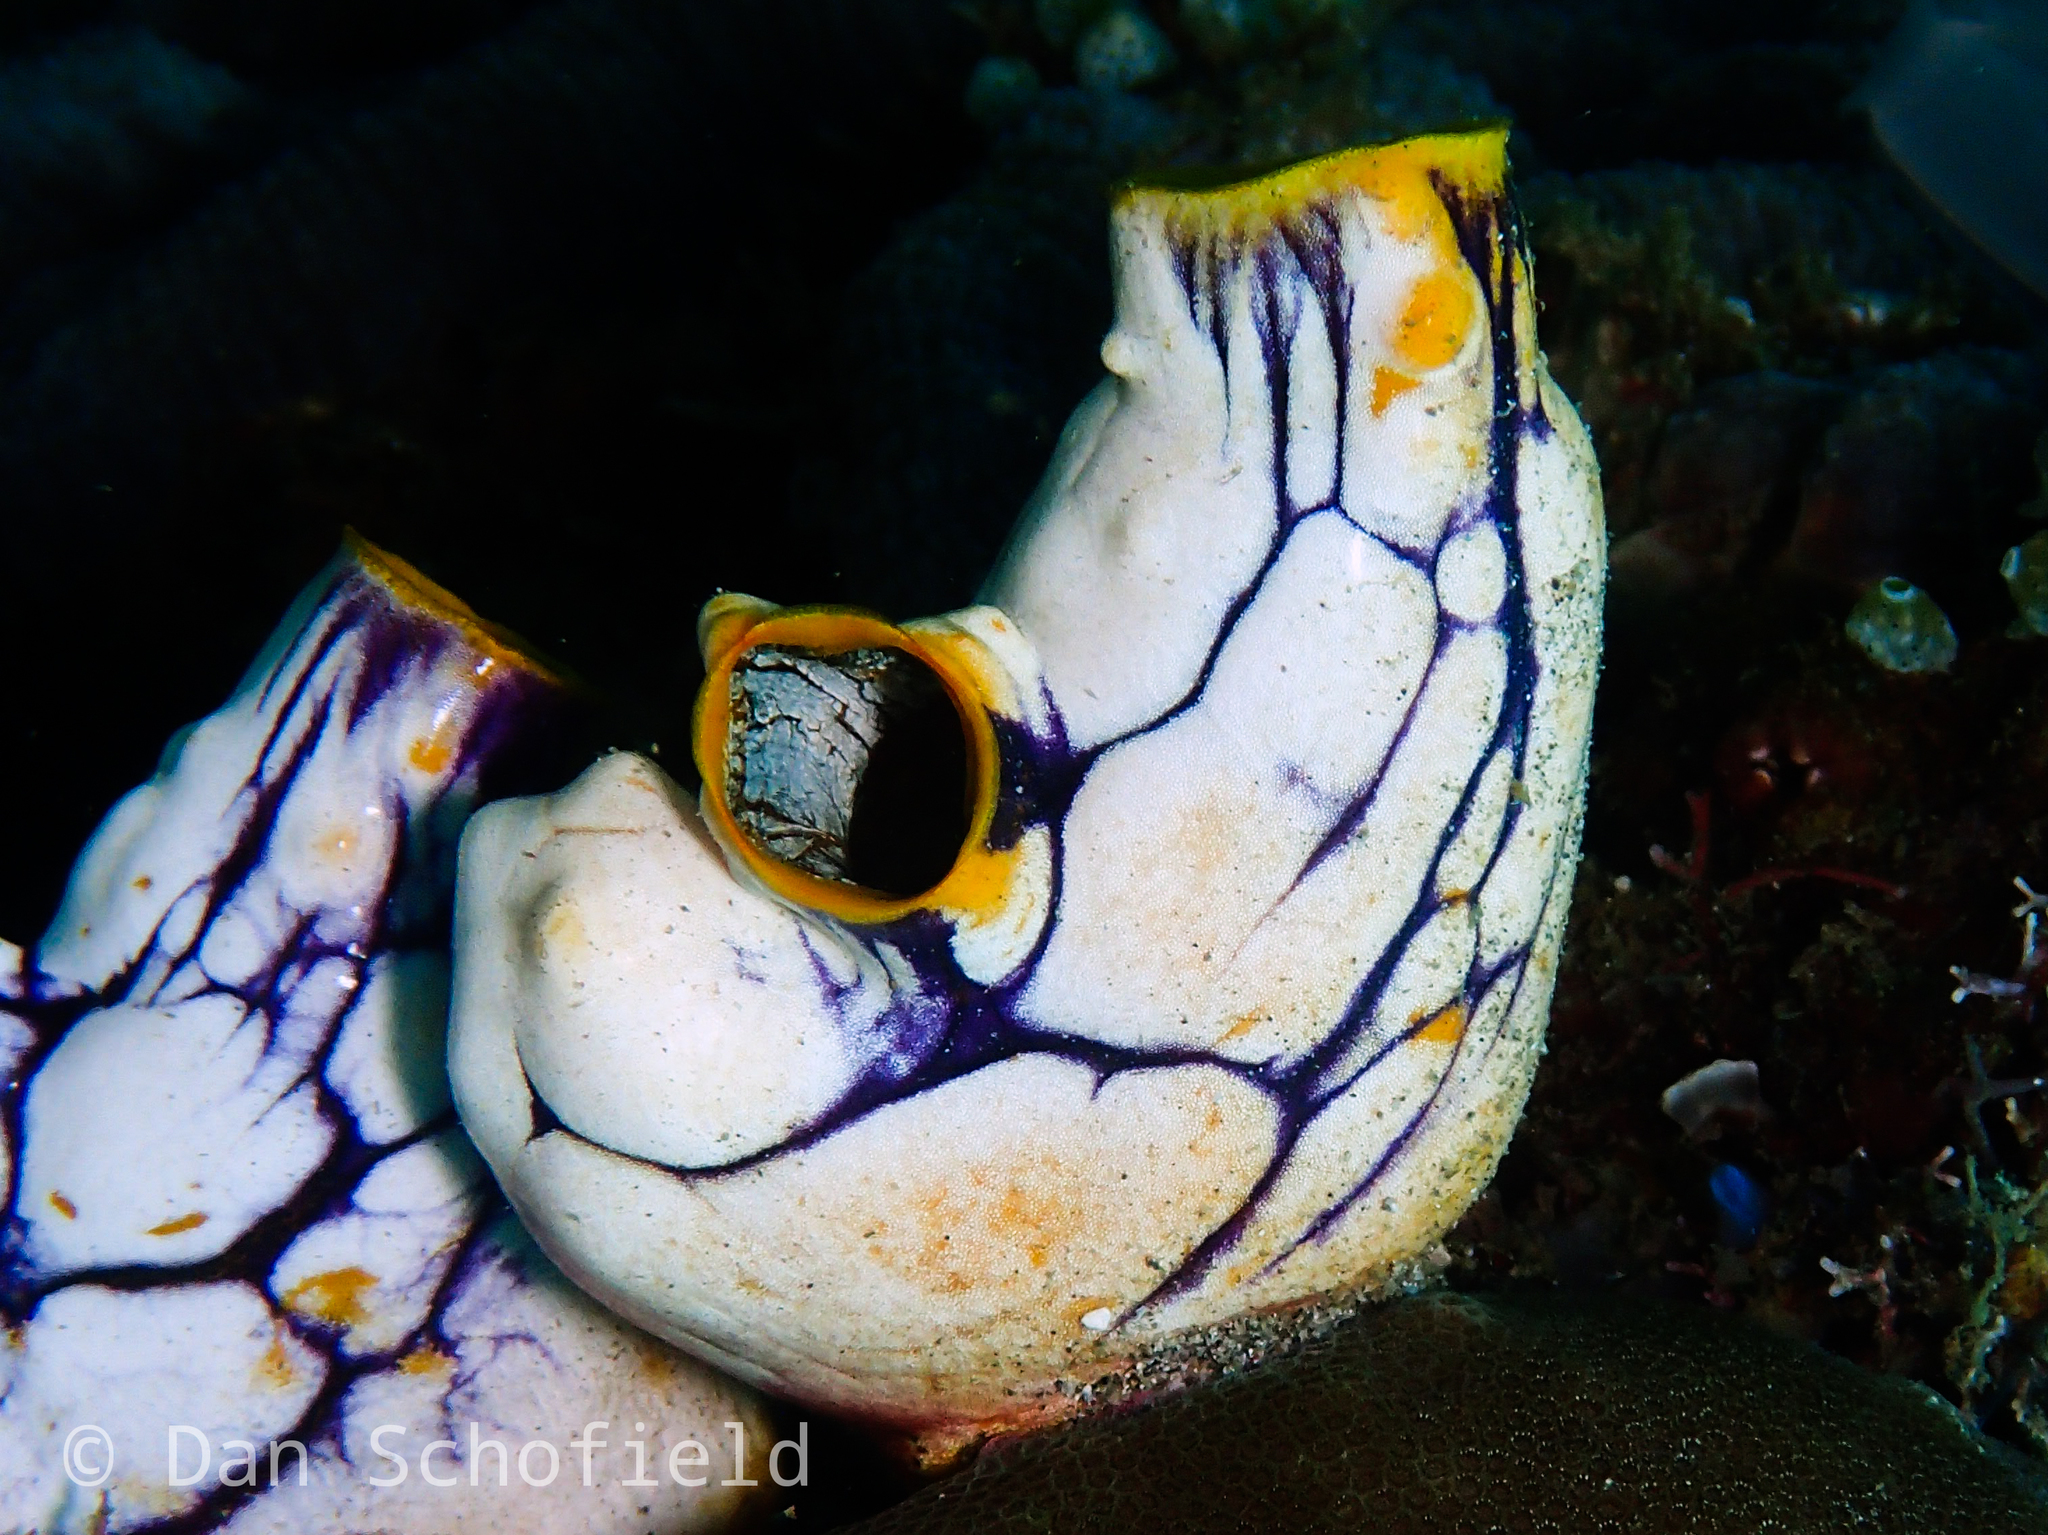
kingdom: Animalia
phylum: Chordata
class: Ascidiacea
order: Stolidobranchia
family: Styelidae
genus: Polycarpa
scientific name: Polycarpa aurata
